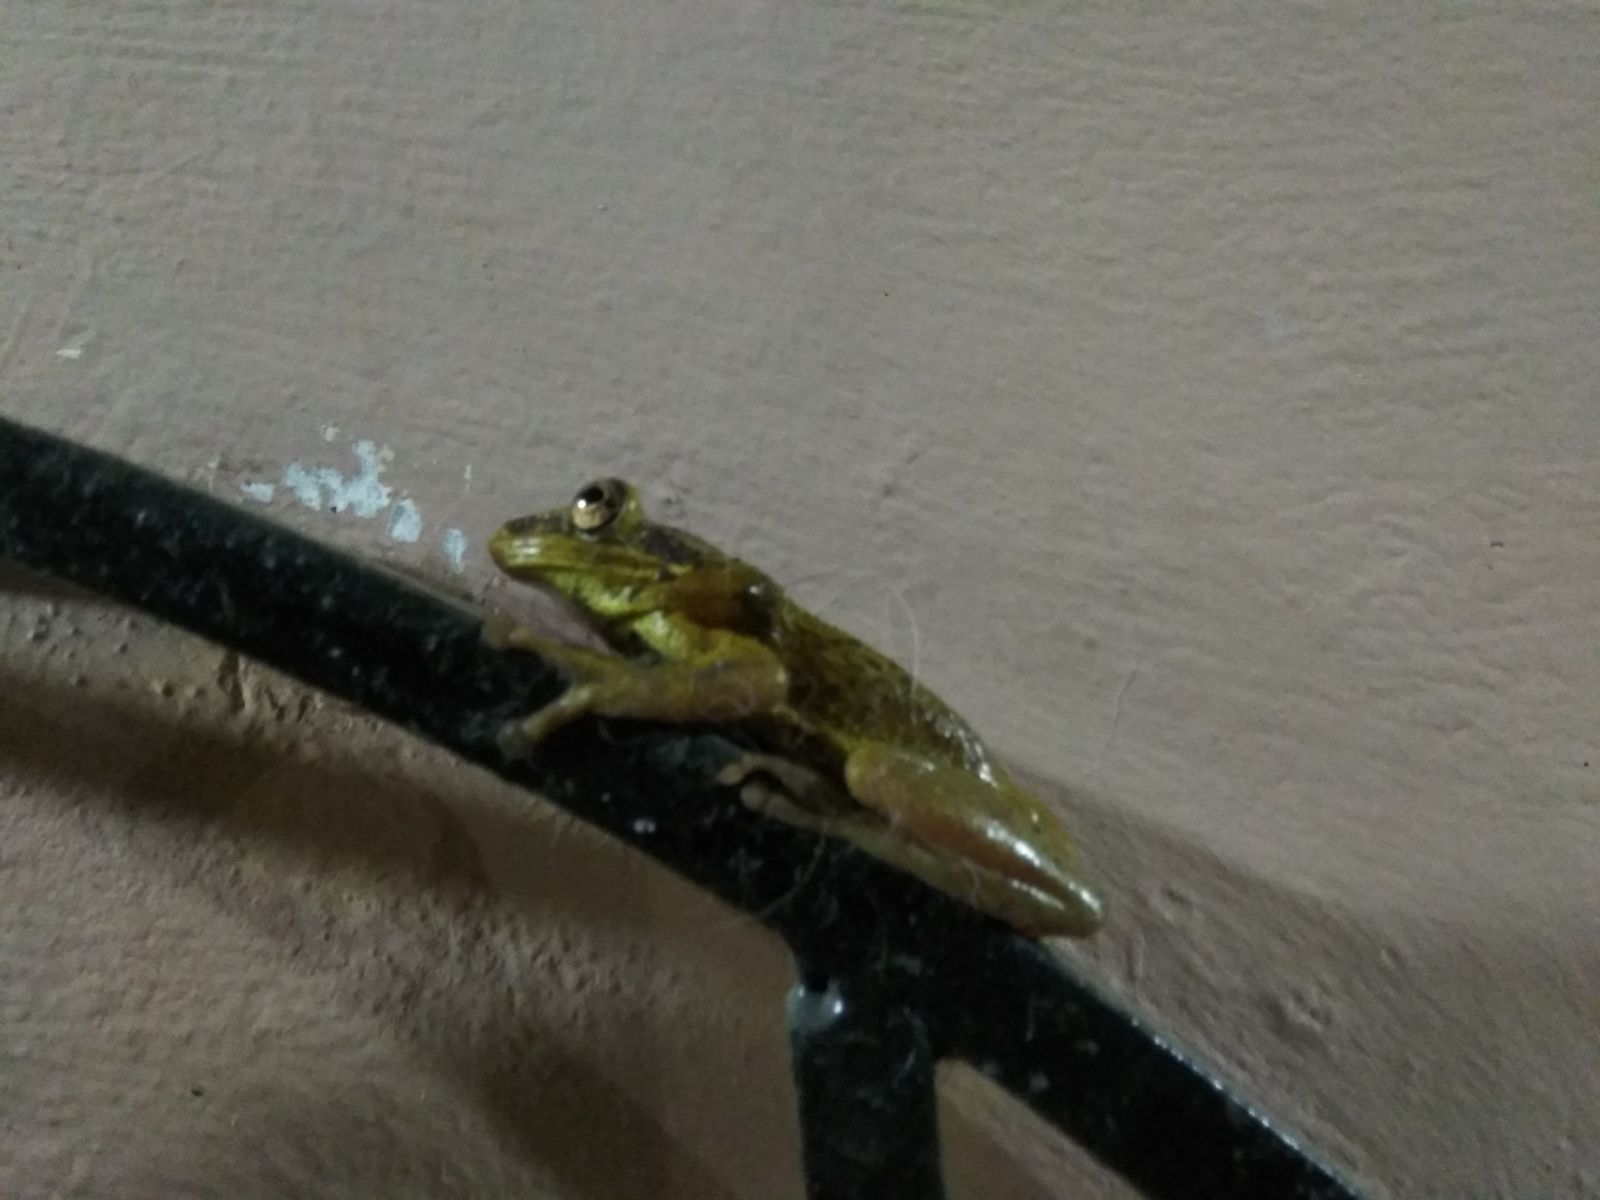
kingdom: Animalia
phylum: Chordata
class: Amphibia
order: Anura
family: Hylidae
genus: Trachycephalus
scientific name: Trachycephalus jordani
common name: Jordan's casque-headed treefrog
